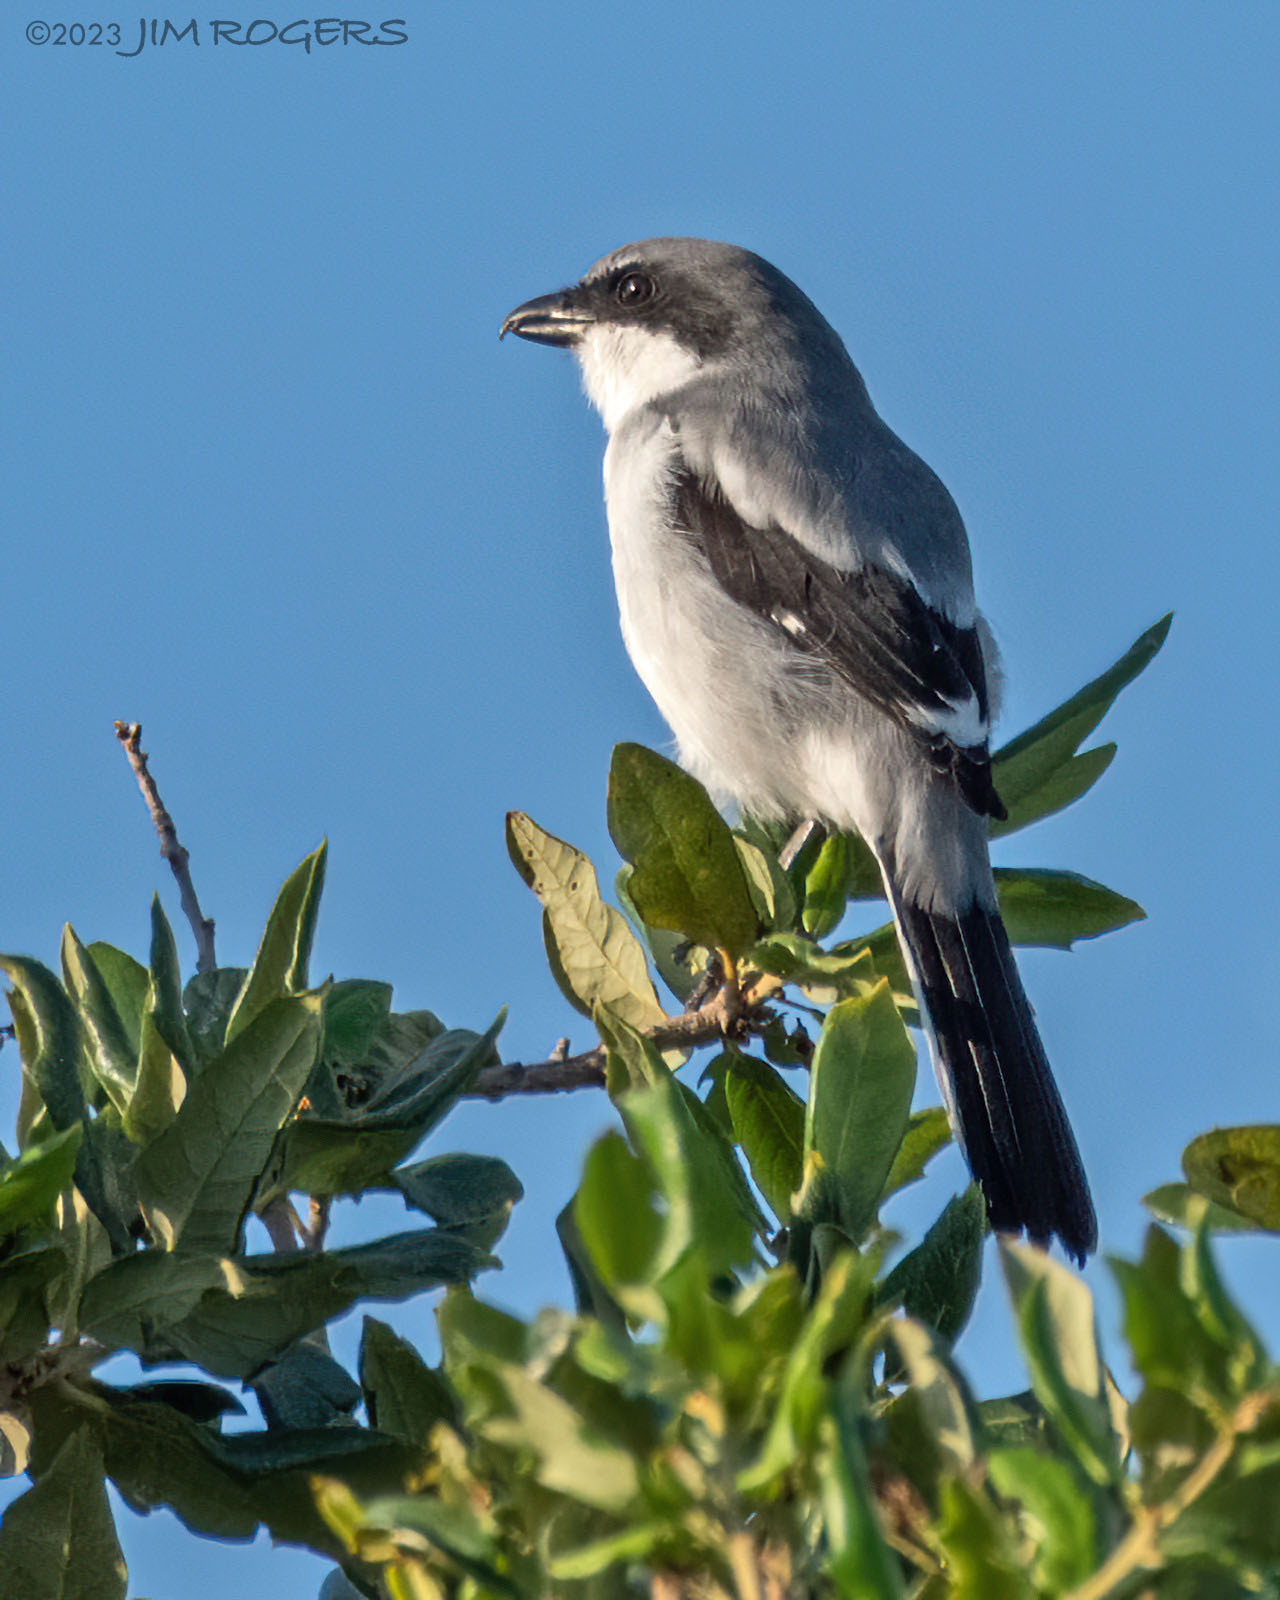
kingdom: Animalia
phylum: Chordata
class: Aves
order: Passeriformes
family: Laniidae
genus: Lanius
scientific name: Lanius ludovicianus
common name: Loggerhead shrike
